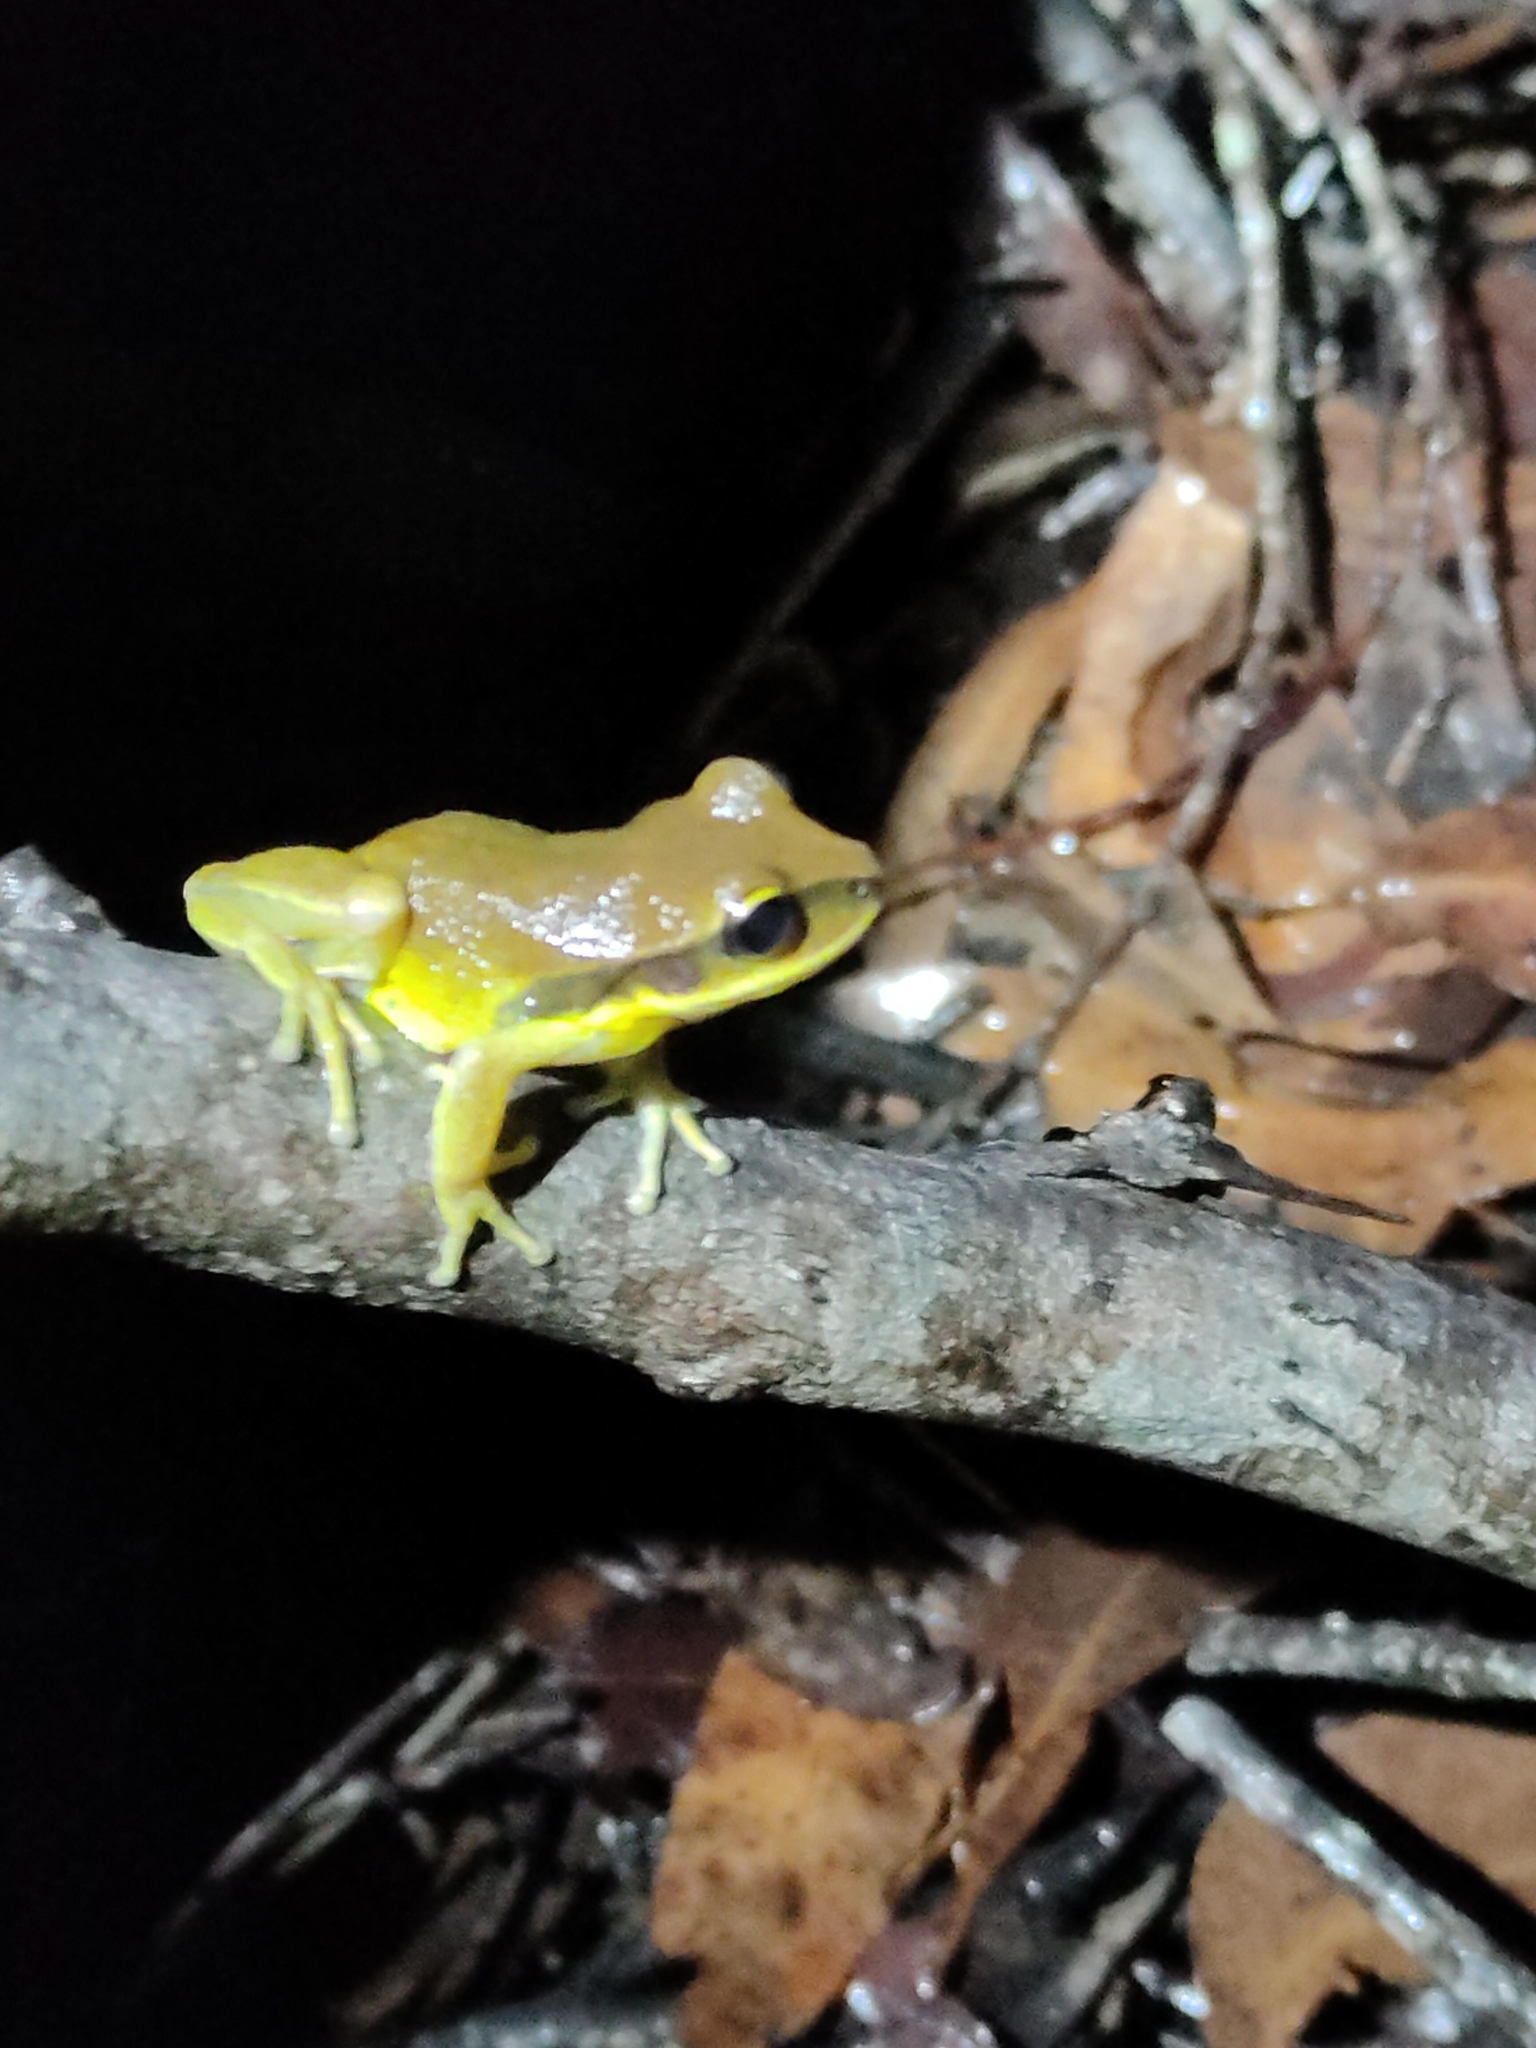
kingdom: Animalia
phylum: Chordata
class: Amphibia
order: Anura
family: Pelodryadidae
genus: Nyctimystes
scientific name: Nyctimystes brevipalmatus
